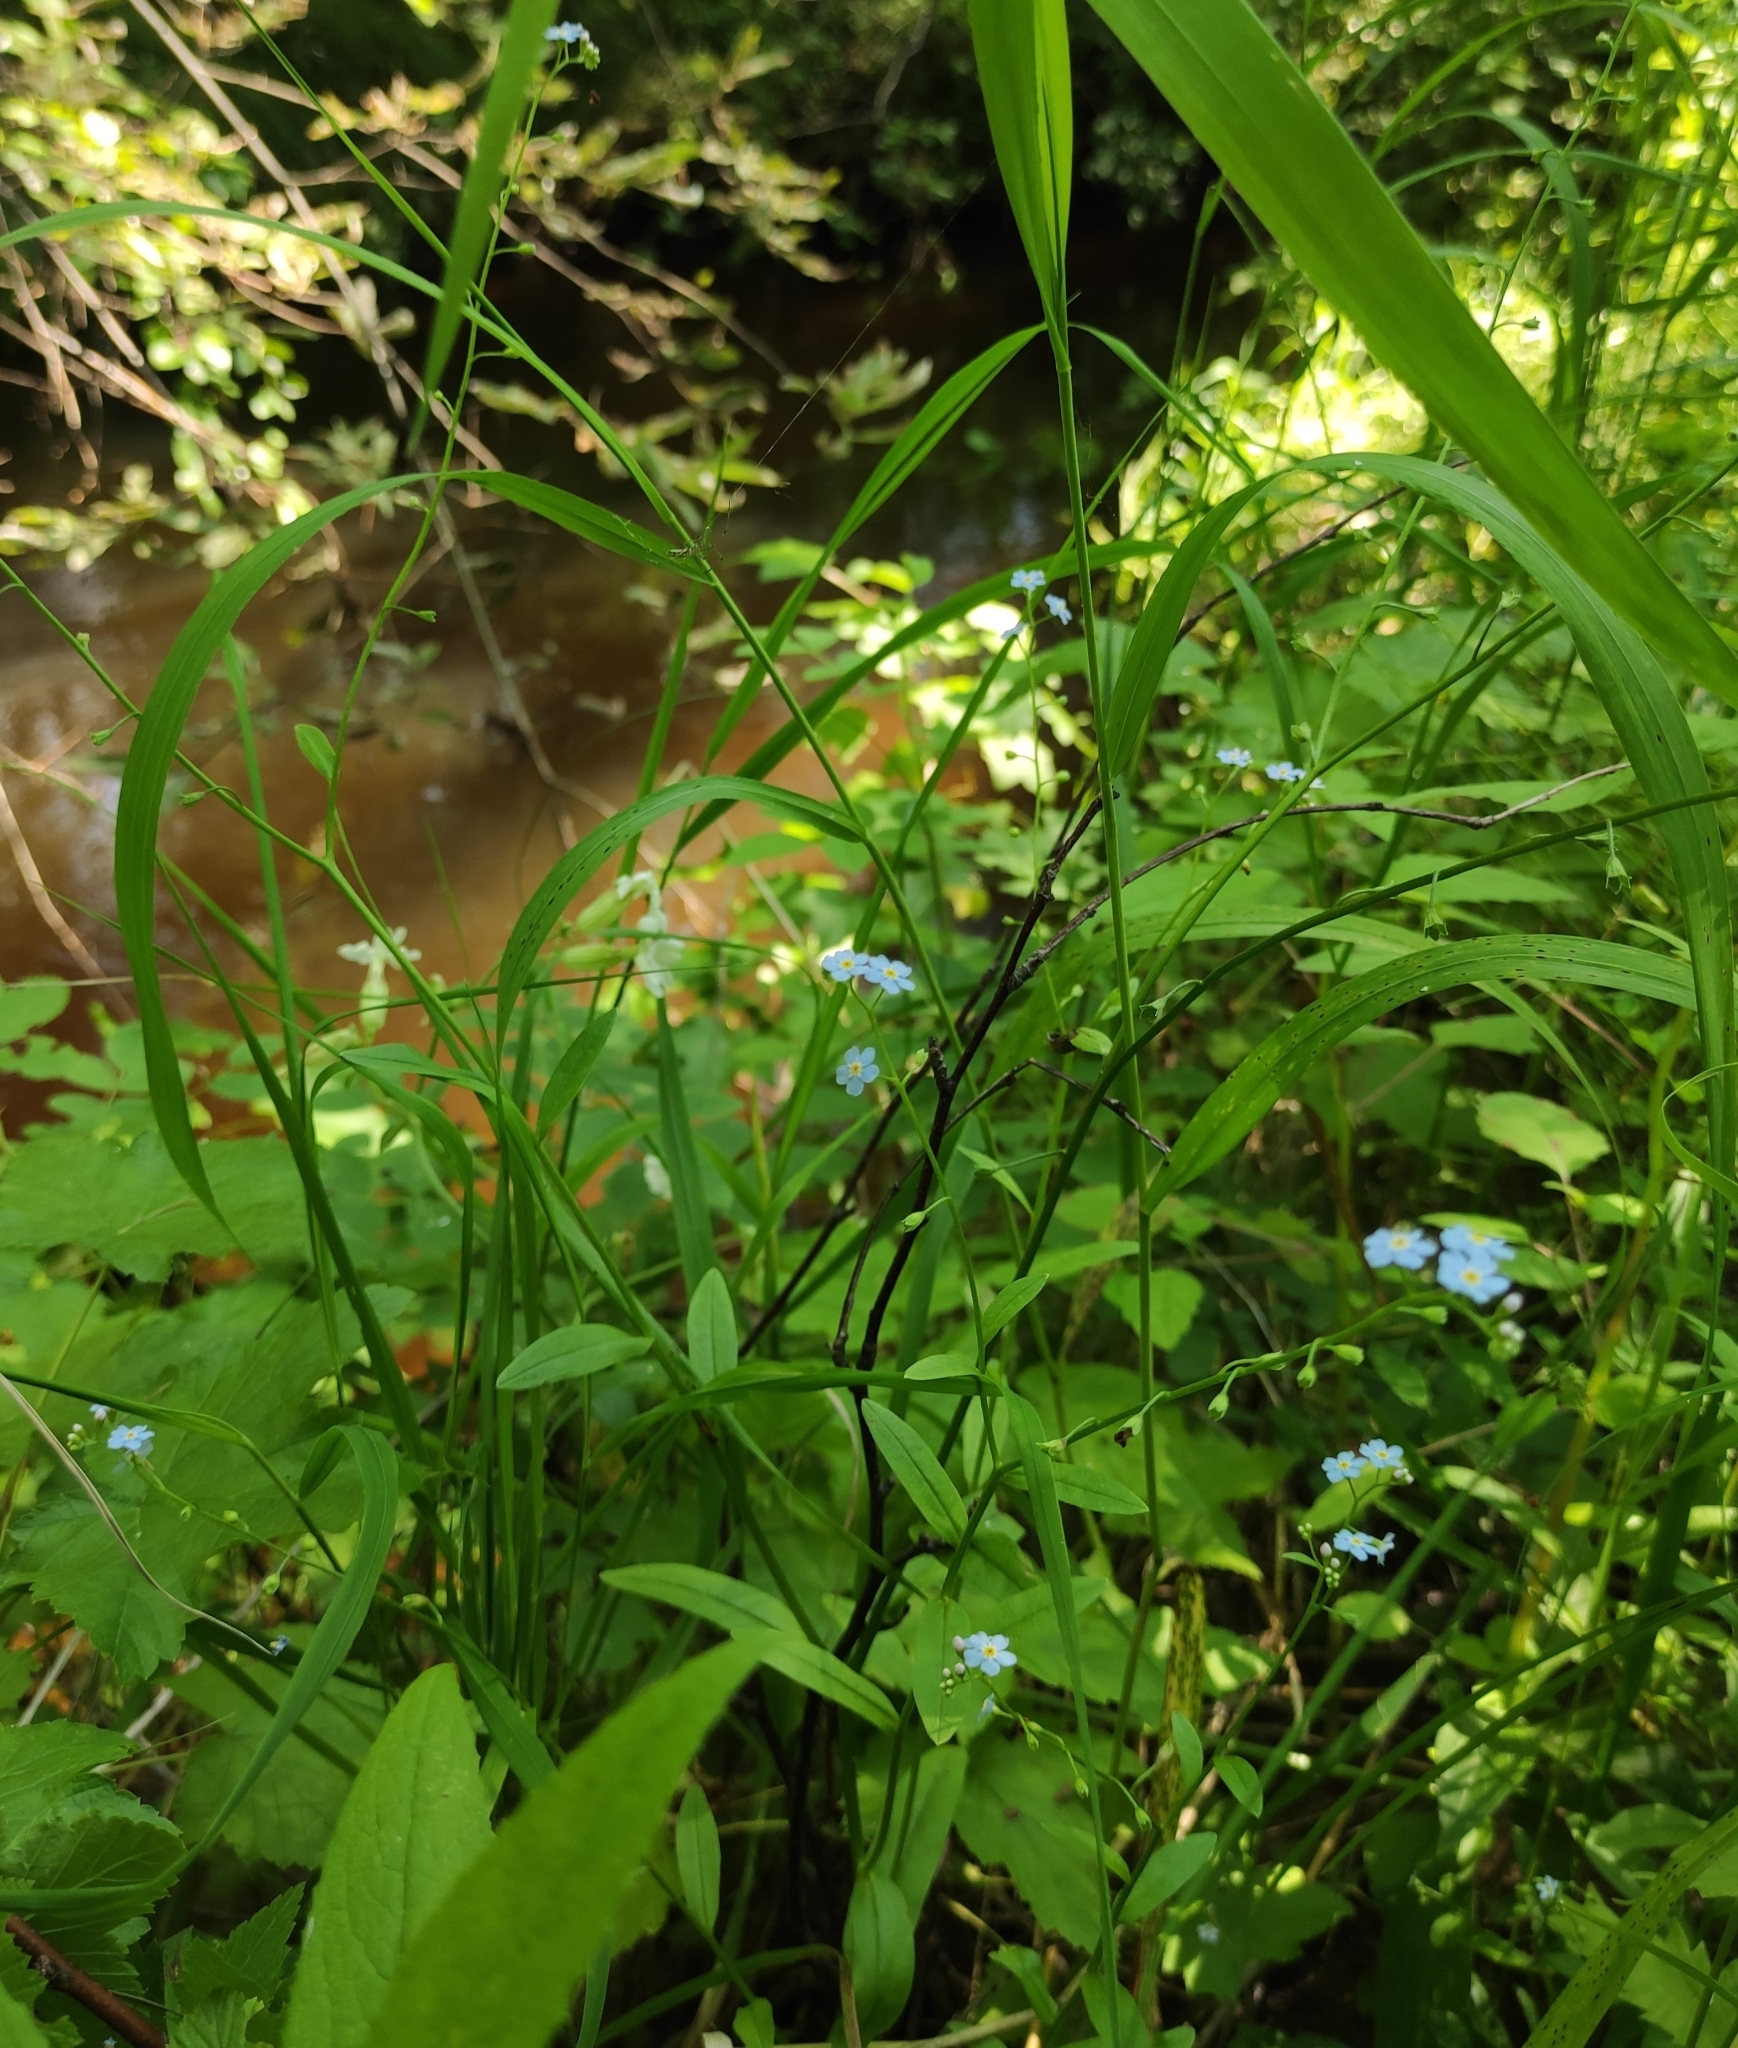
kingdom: Plantae
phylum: Tracheophyta
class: Magnoliopsida
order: Boraginales
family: Boraginaceae
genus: Myosotis
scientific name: Myosotis scorpioides
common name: Water forget-me-not
